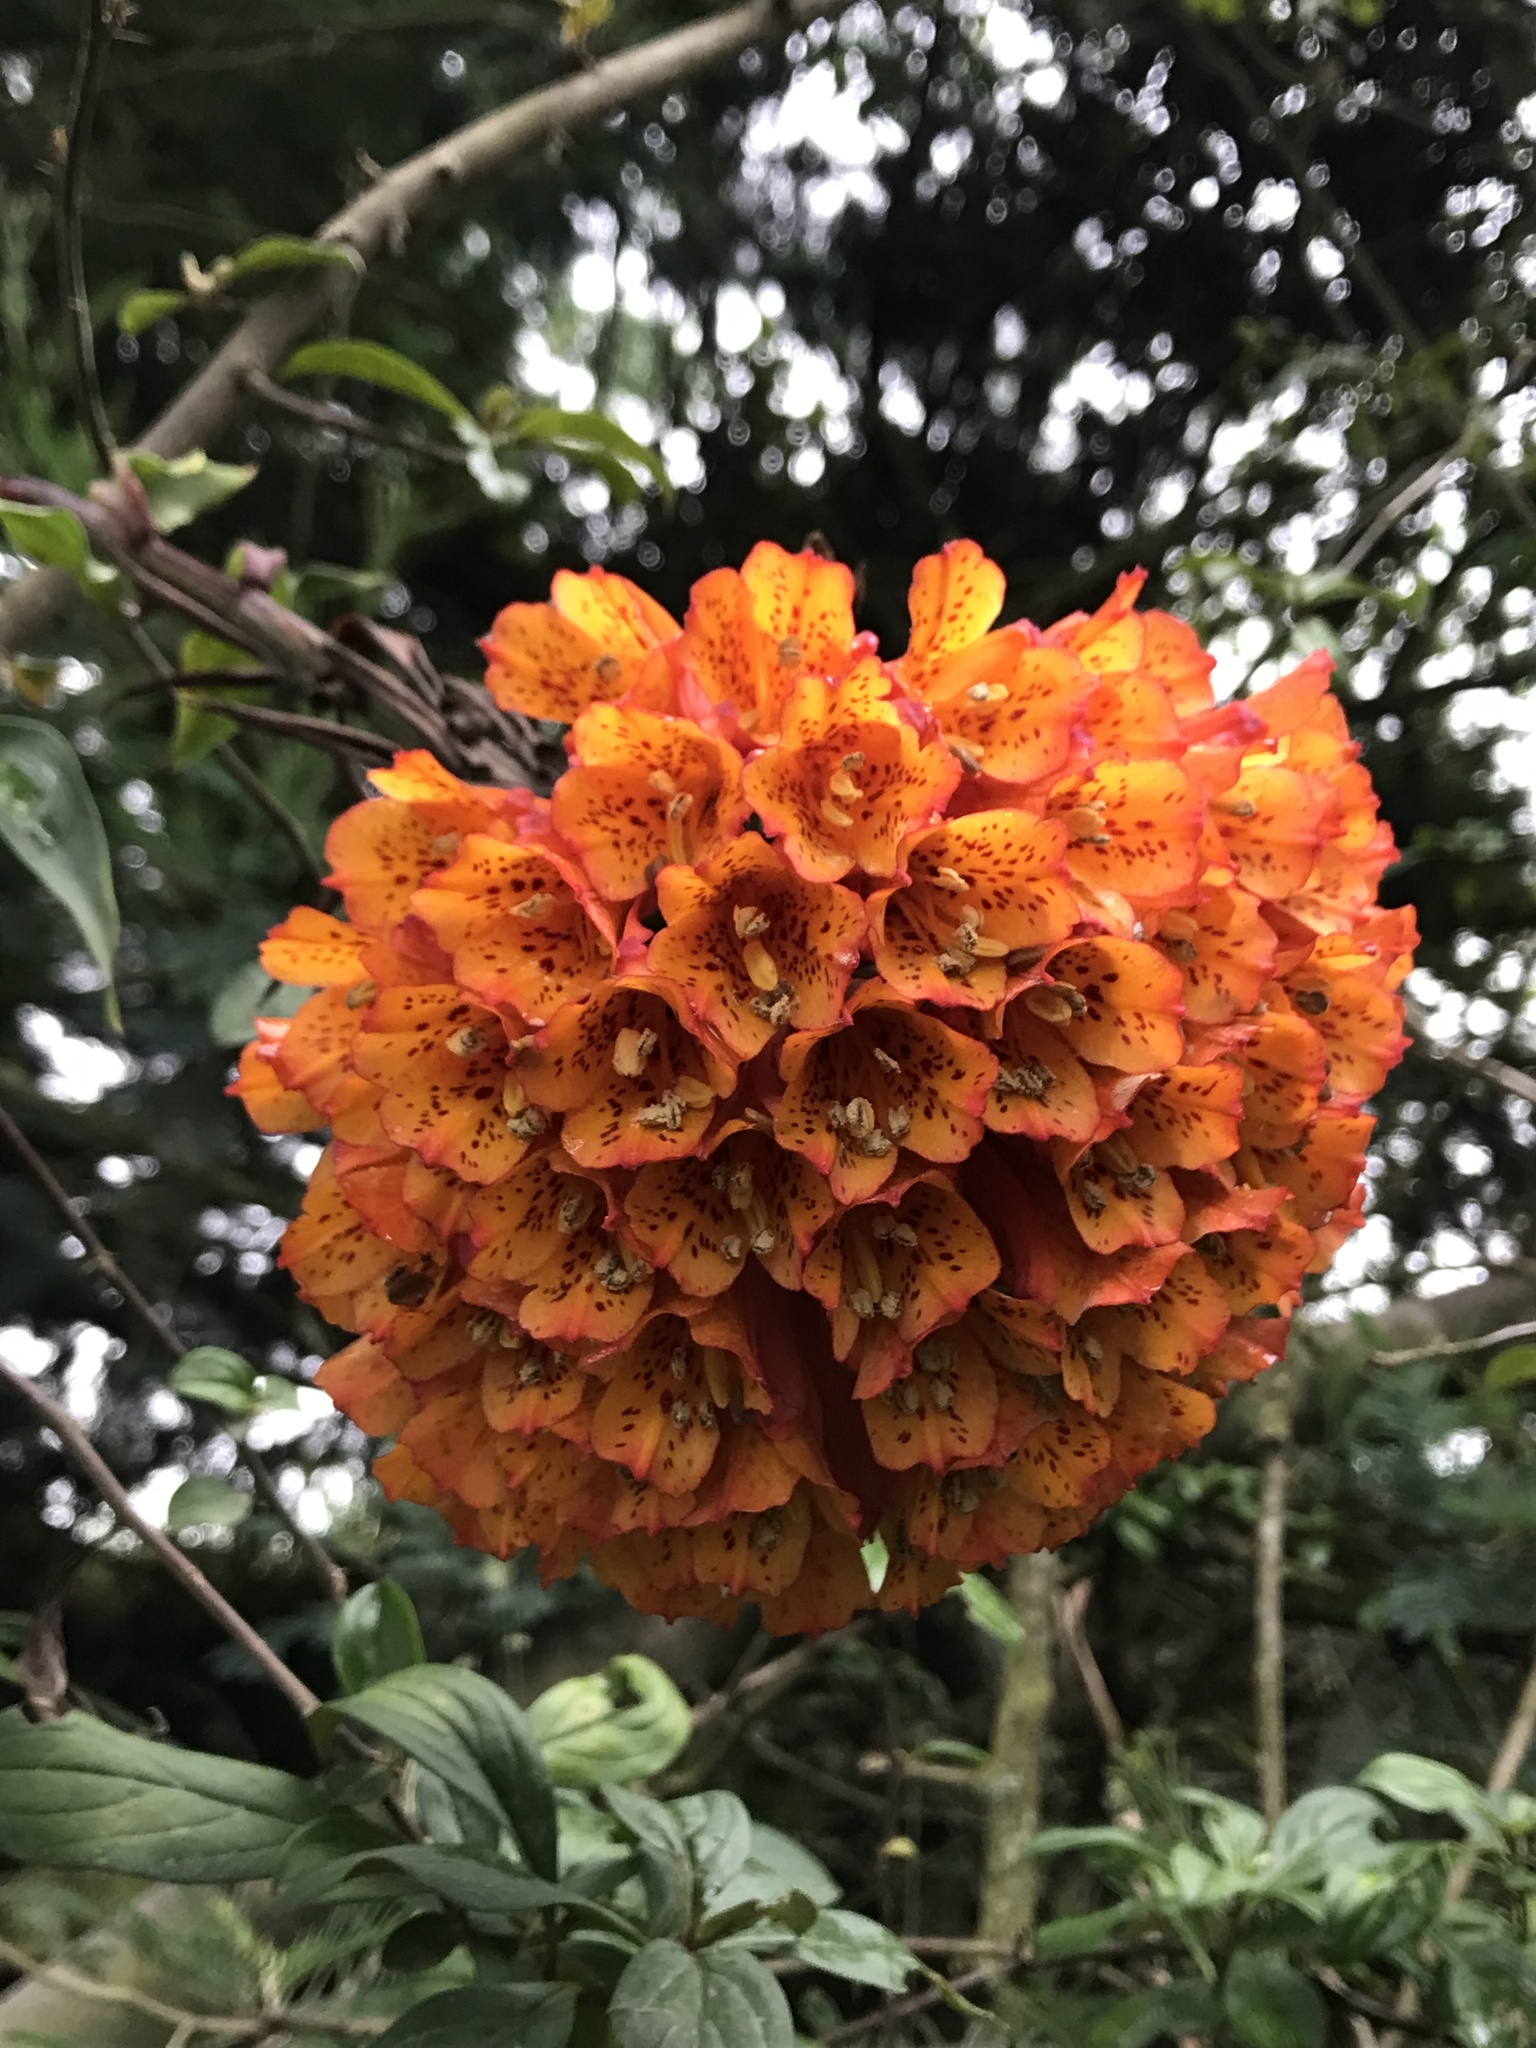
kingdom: Plantae
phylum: Tracheophyta
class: Liliopsida
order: Liliales
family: Alstroemeriaceae
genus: Bomarea
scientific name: Bomarea multiflora
